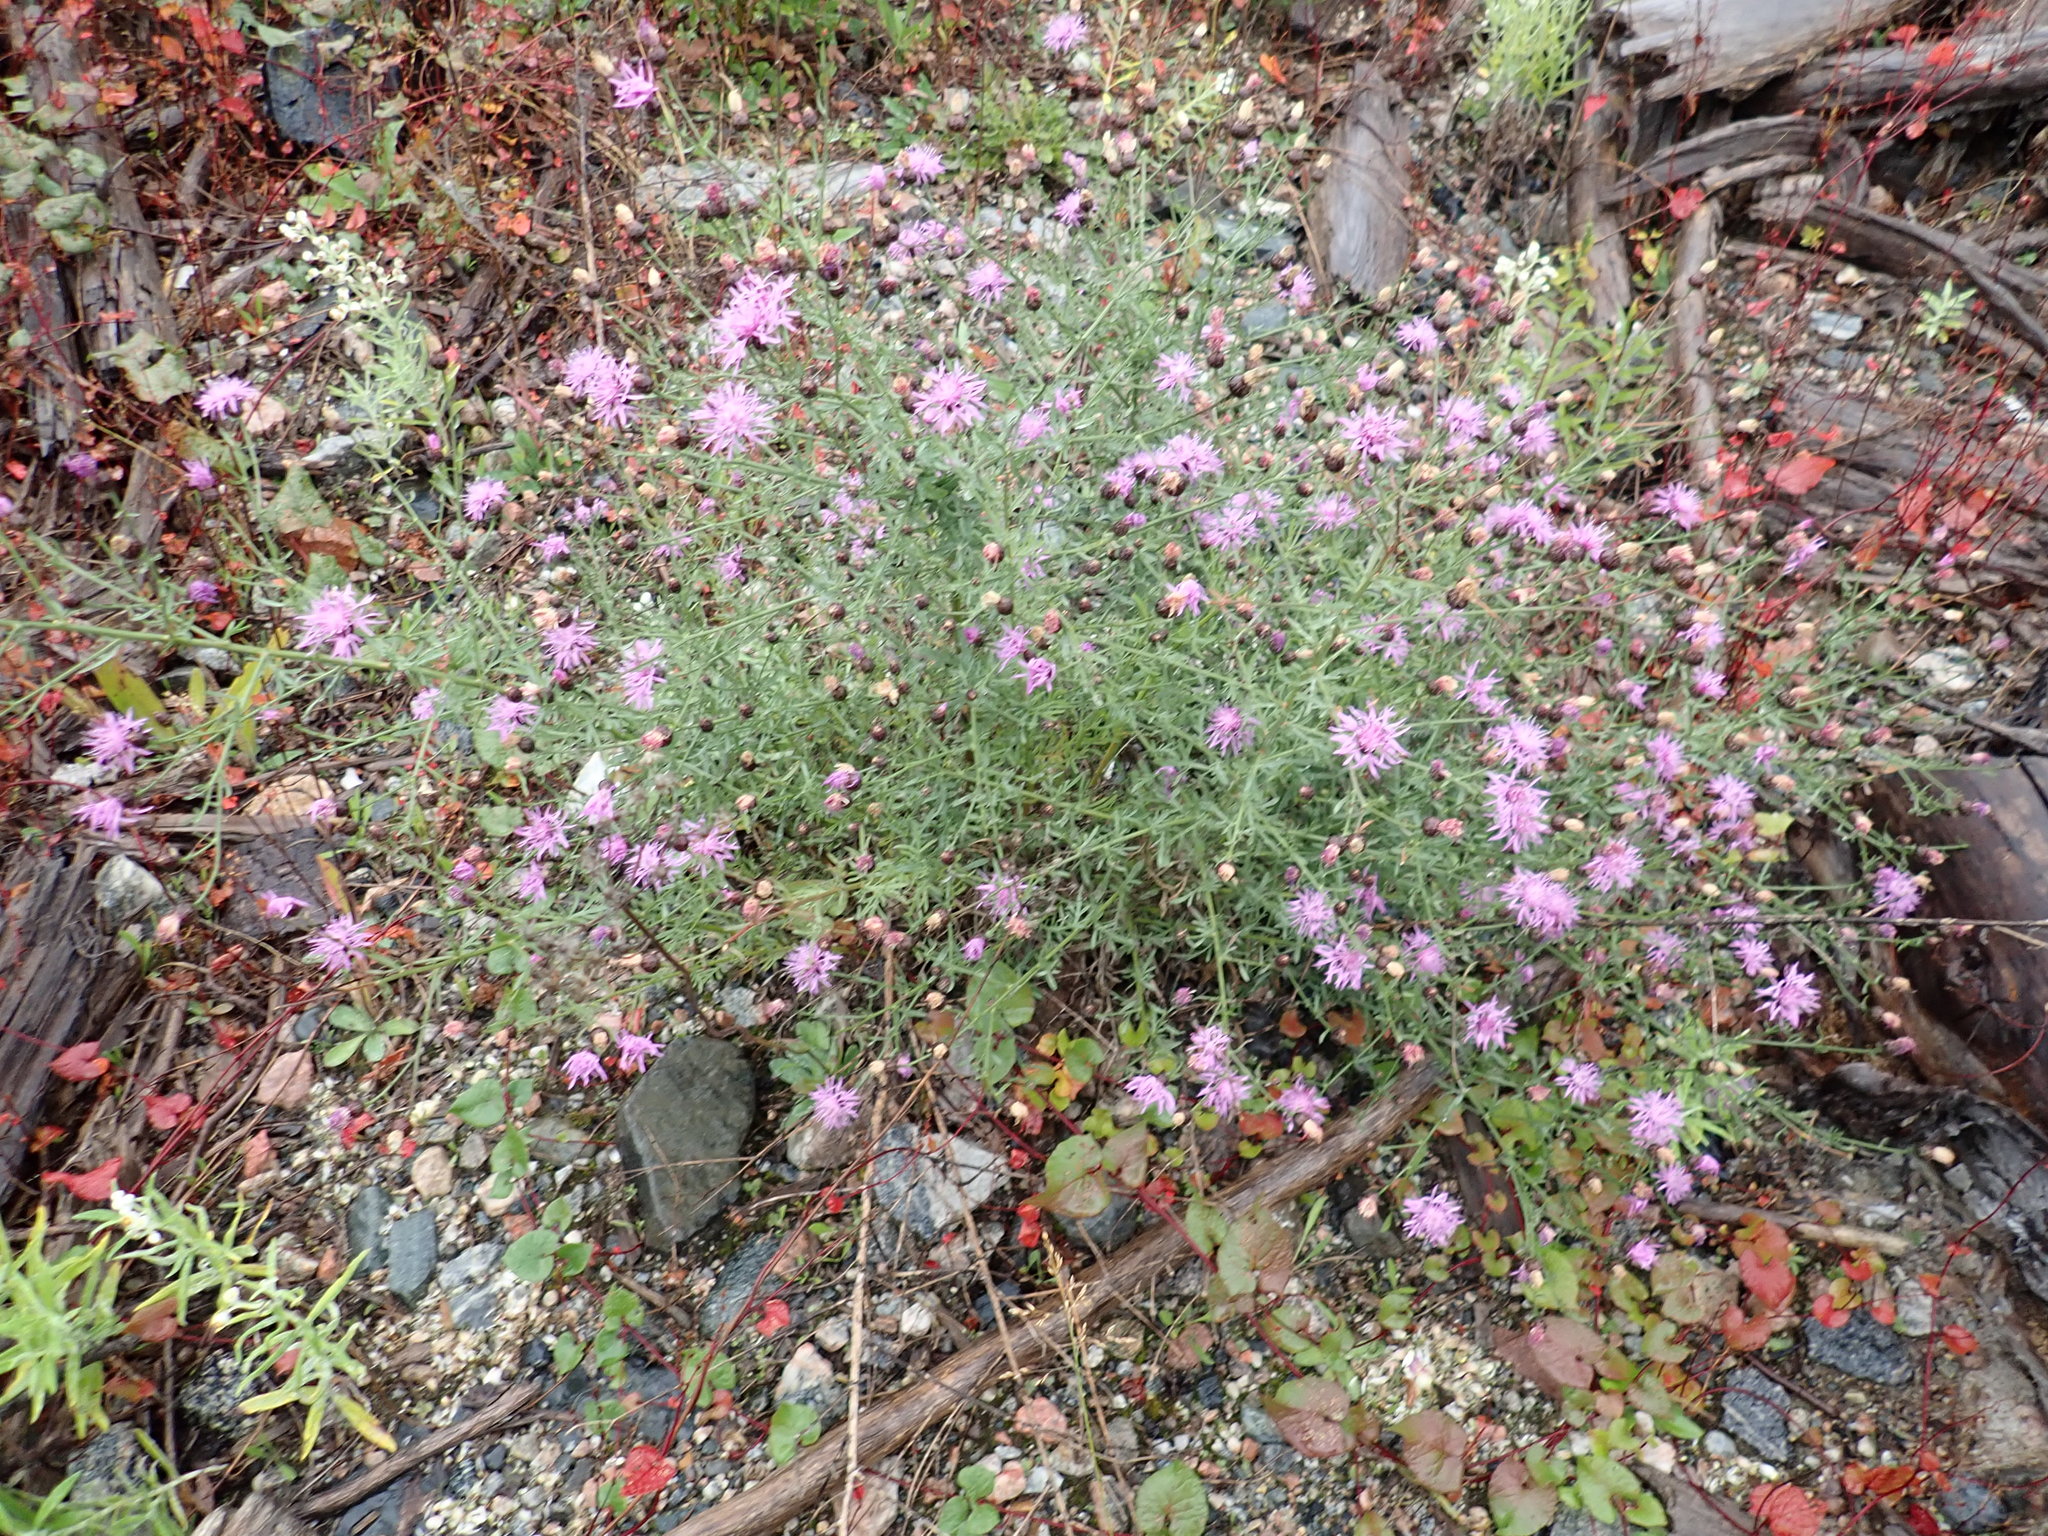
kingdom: Plantae
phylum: Tracheophyta
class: Magnoliopsida
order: Asterales
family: Asteraceae
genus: Centaurea
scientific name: Centaurea stoebe
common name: Spotted knapweed
